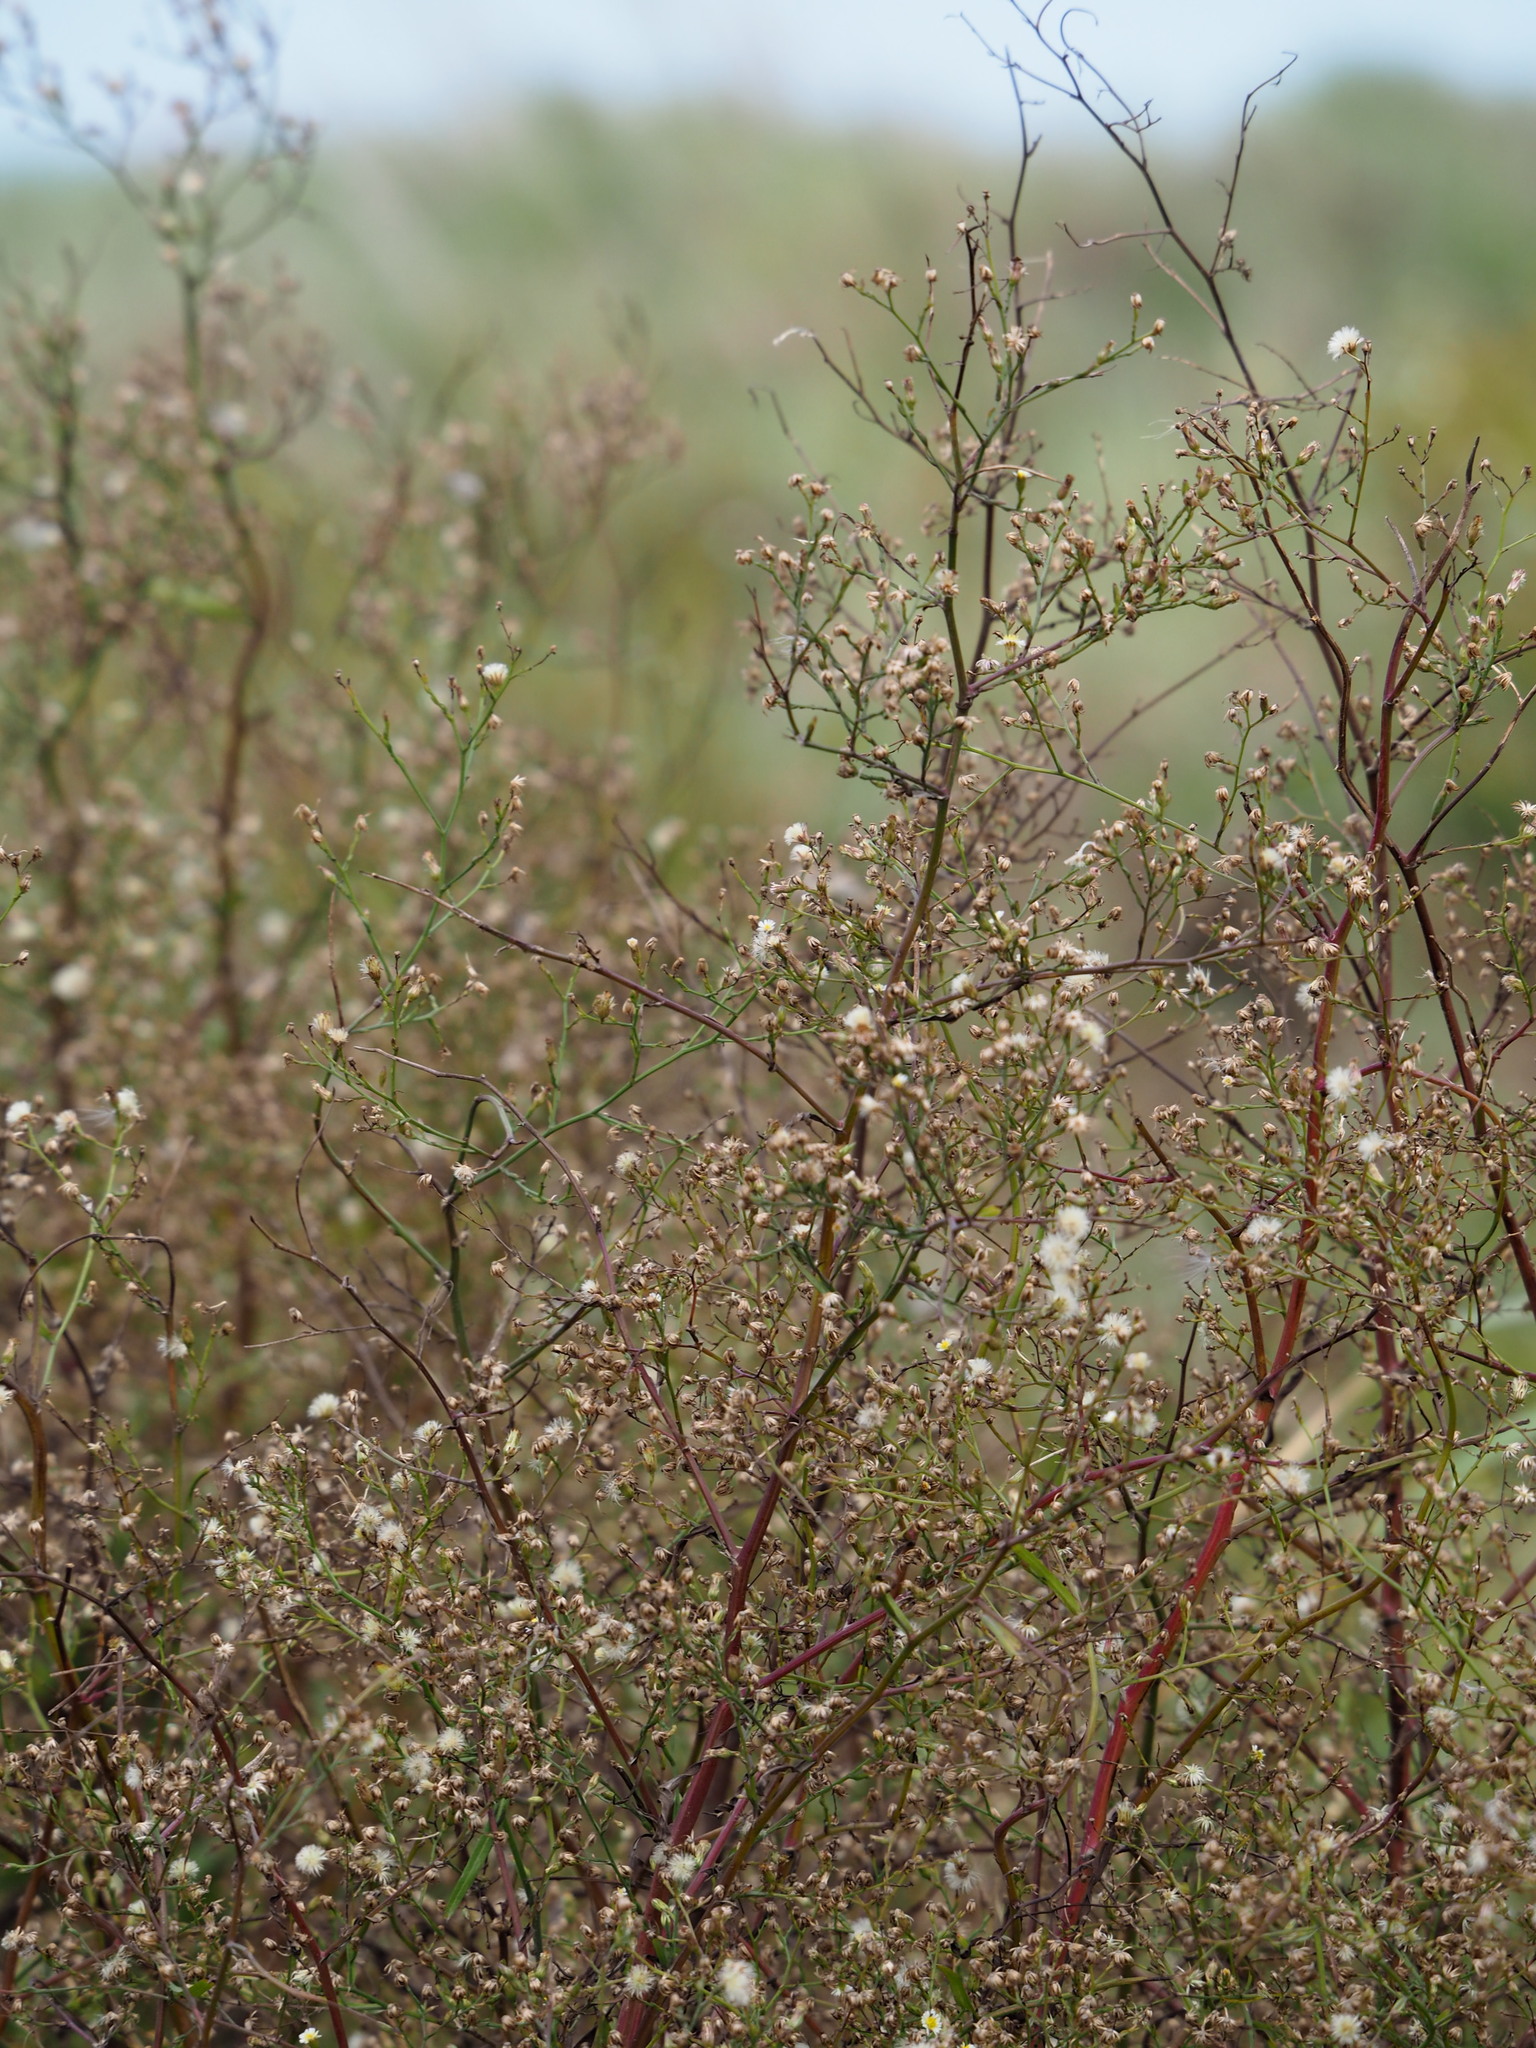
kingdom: Plantae
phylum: Tracheophyta
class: Magnoliopsida
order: Asterales
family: Asteraceae
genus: Symphyotrichum
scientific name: Symphyotrichum subulatum
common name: Annual saltmarsh aster
